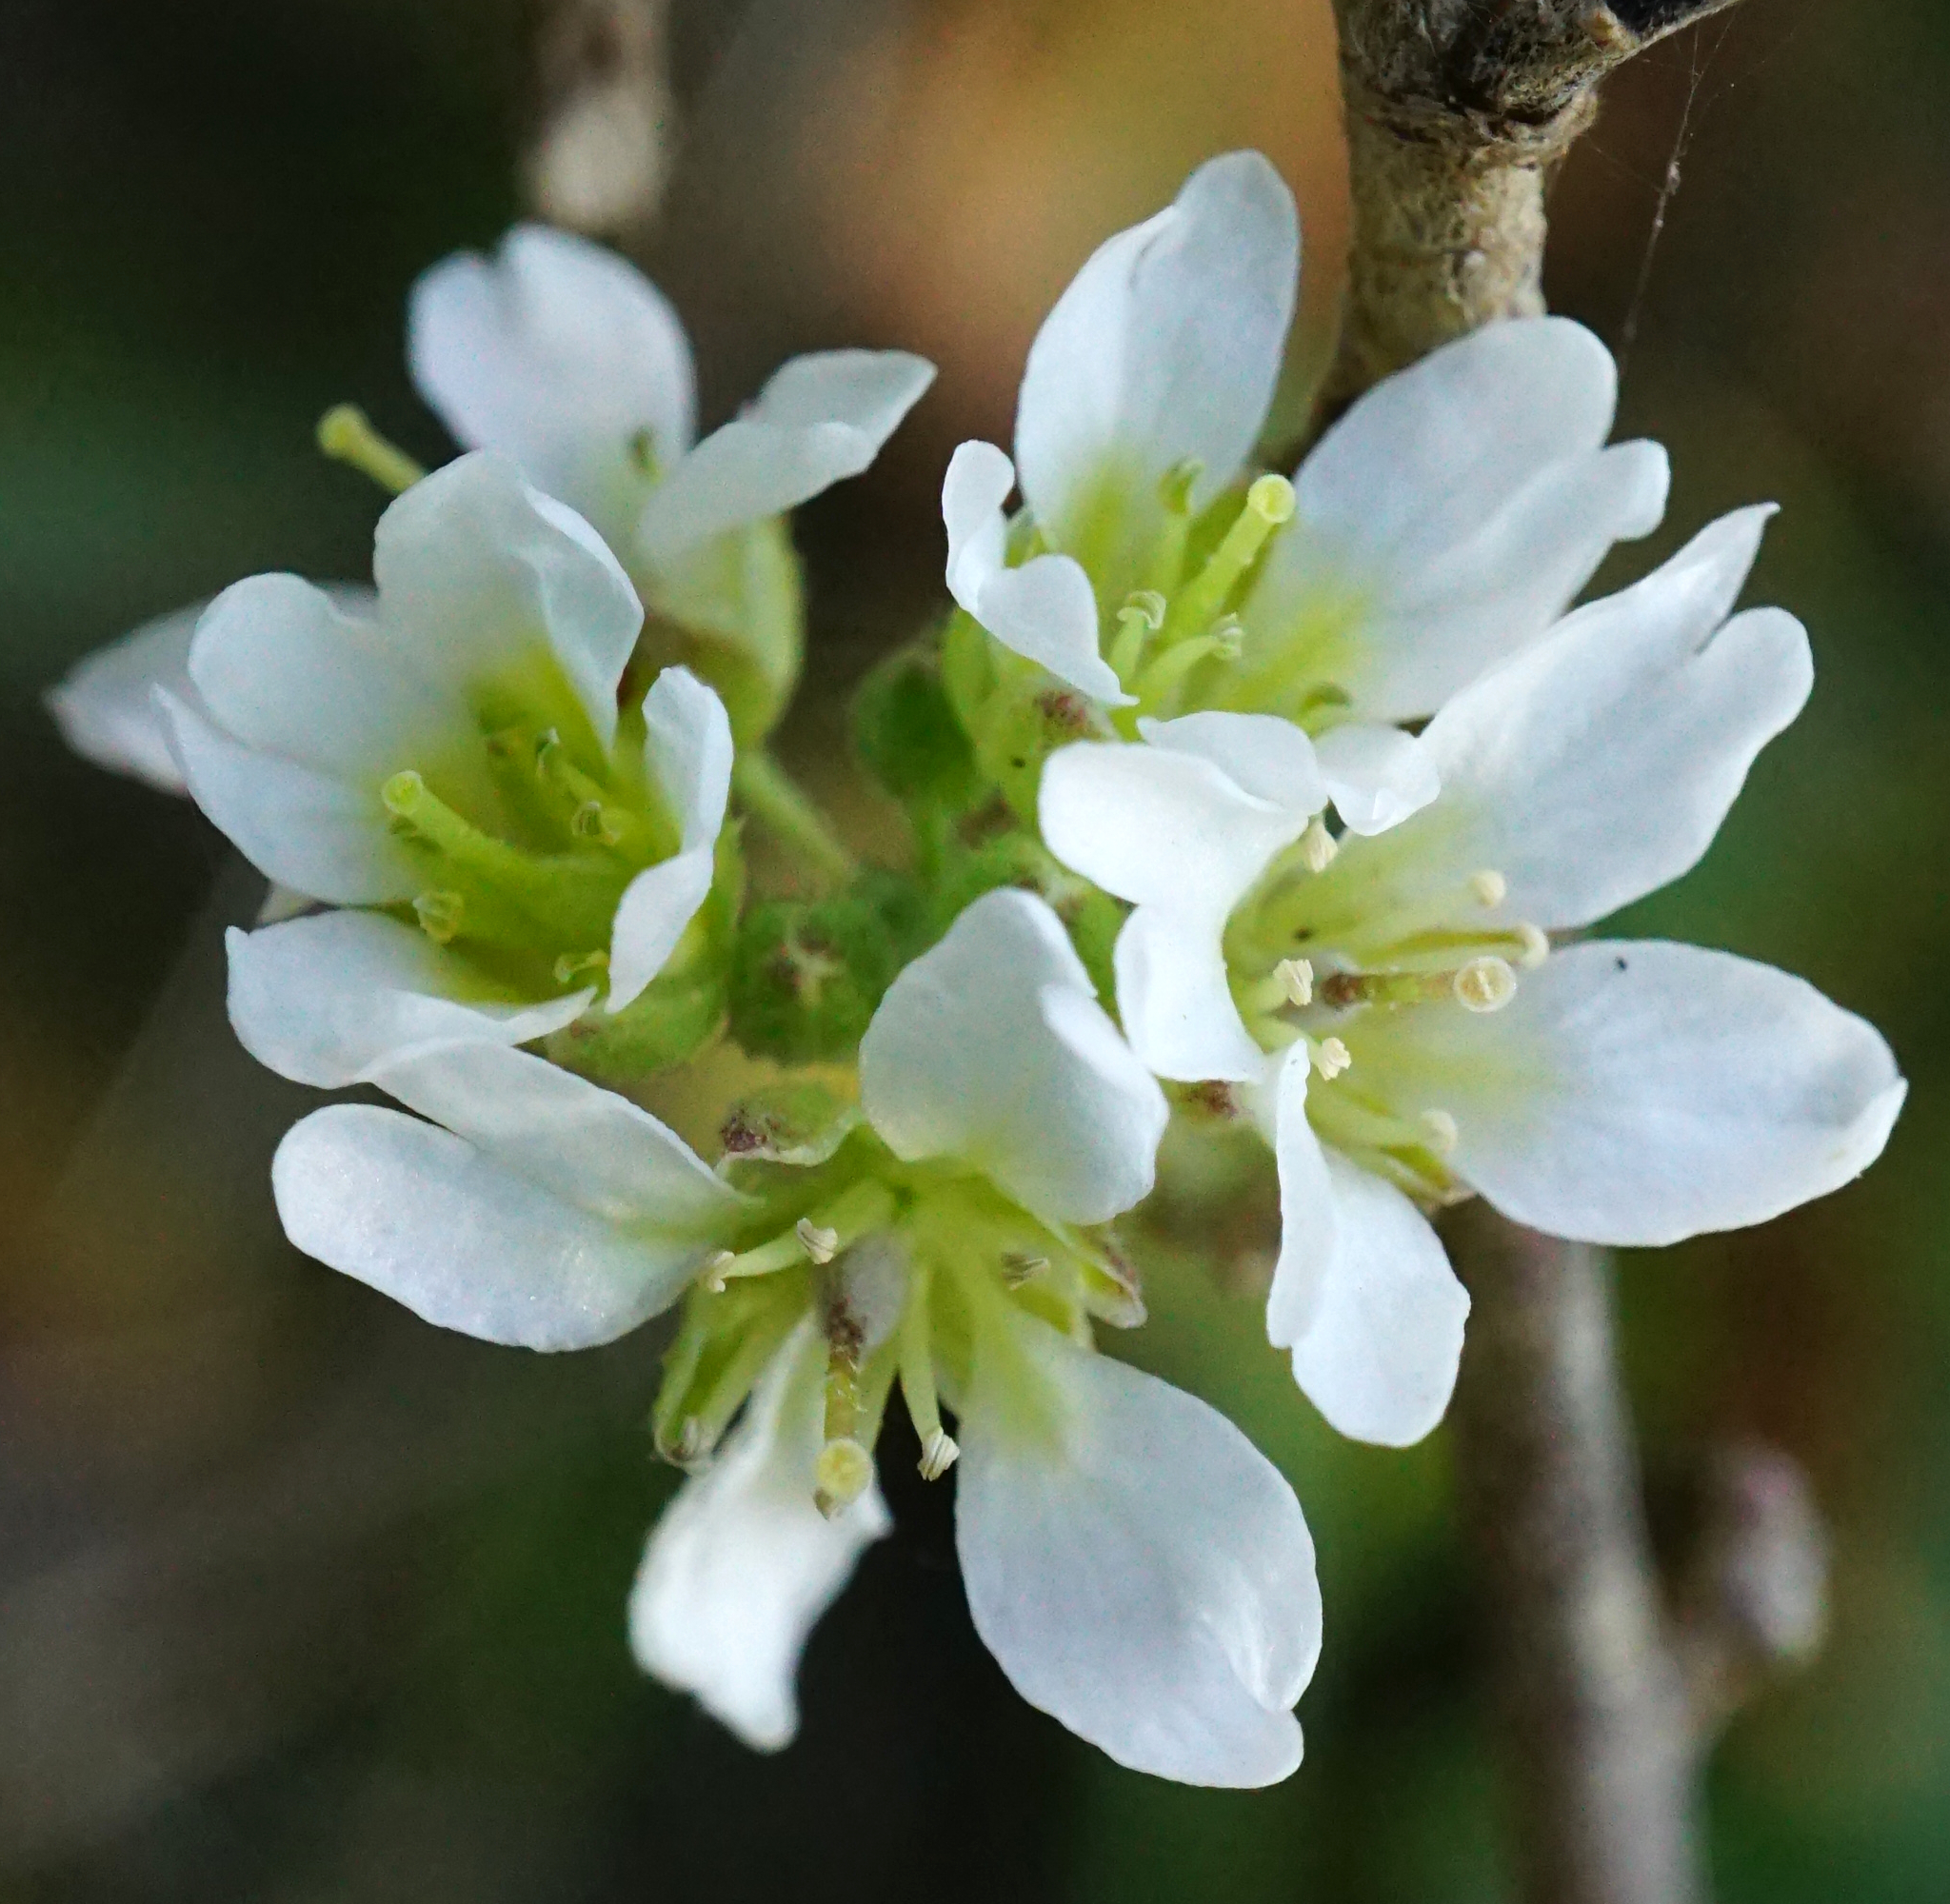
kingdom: Plantae
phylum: Tracheophyta
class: Magnoliopsida
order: Brassicales
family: Brassicaceae
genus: Berteroa
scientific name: Berteroa incana
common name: Hoary alison
